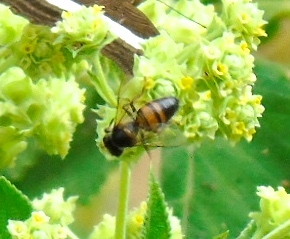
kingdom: Animalia
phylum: Arthropoda
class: Insecta
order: Hymenoptera
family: Apidae
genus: Apis
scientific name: Apis mellifera
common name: Honey bee
